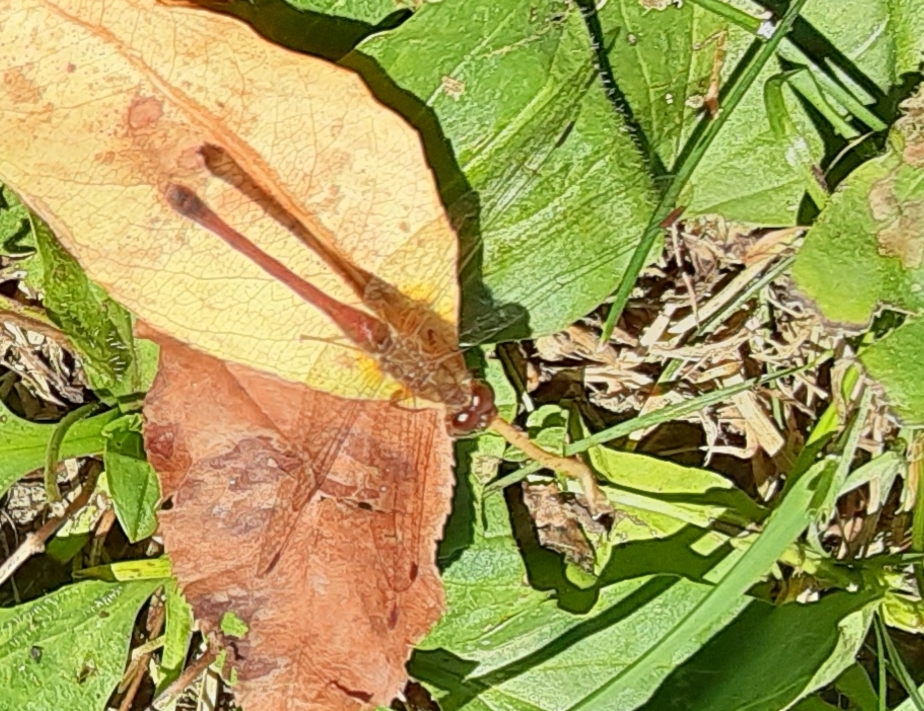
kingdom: Animalia
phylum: Arthropoda
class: Insecta
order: Odonata
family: Libellulidae
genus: Sympetrum
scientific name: Sympetrum vicinum
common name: Autumn meadowhawk
